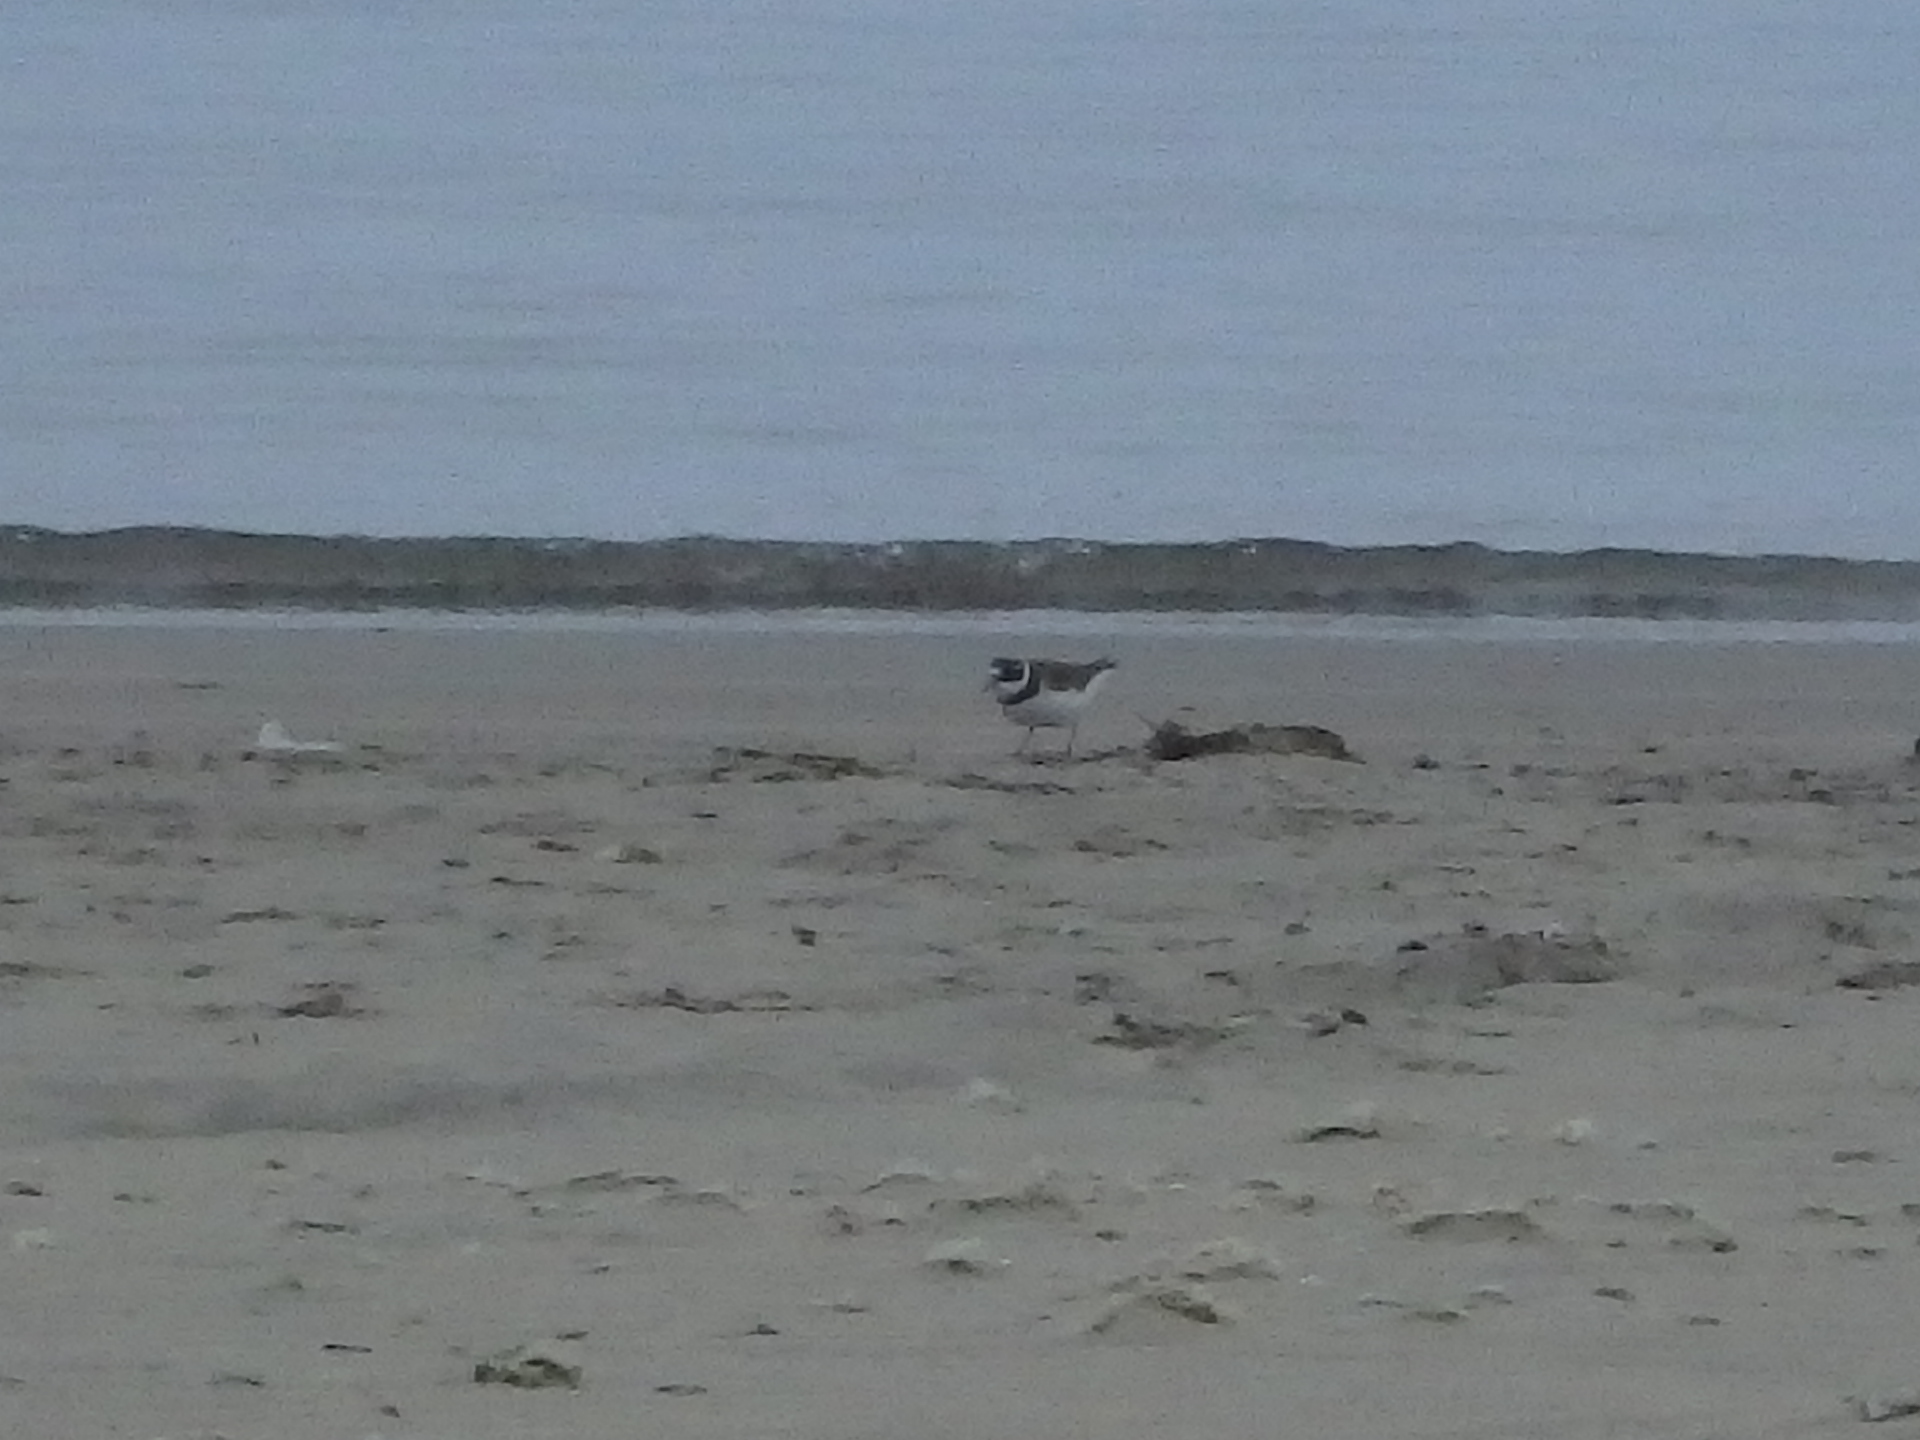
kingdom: Animalia
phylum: Chordata
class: Aves
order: Charadriiformes
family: Charadriidae
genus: Charadrius
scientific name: Charadrius semipalmatus
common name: Semipalmated plover
